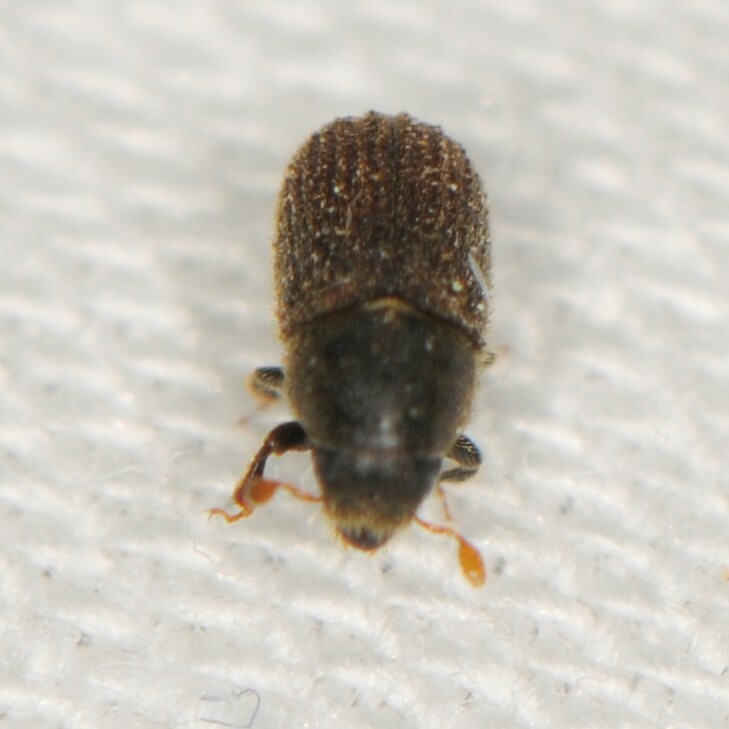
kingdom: Animalia
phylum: Arthropoda
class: Insecta
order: Coleoptera
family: Curculionidae
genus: Phloeosinus
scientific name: Phloeosinus
